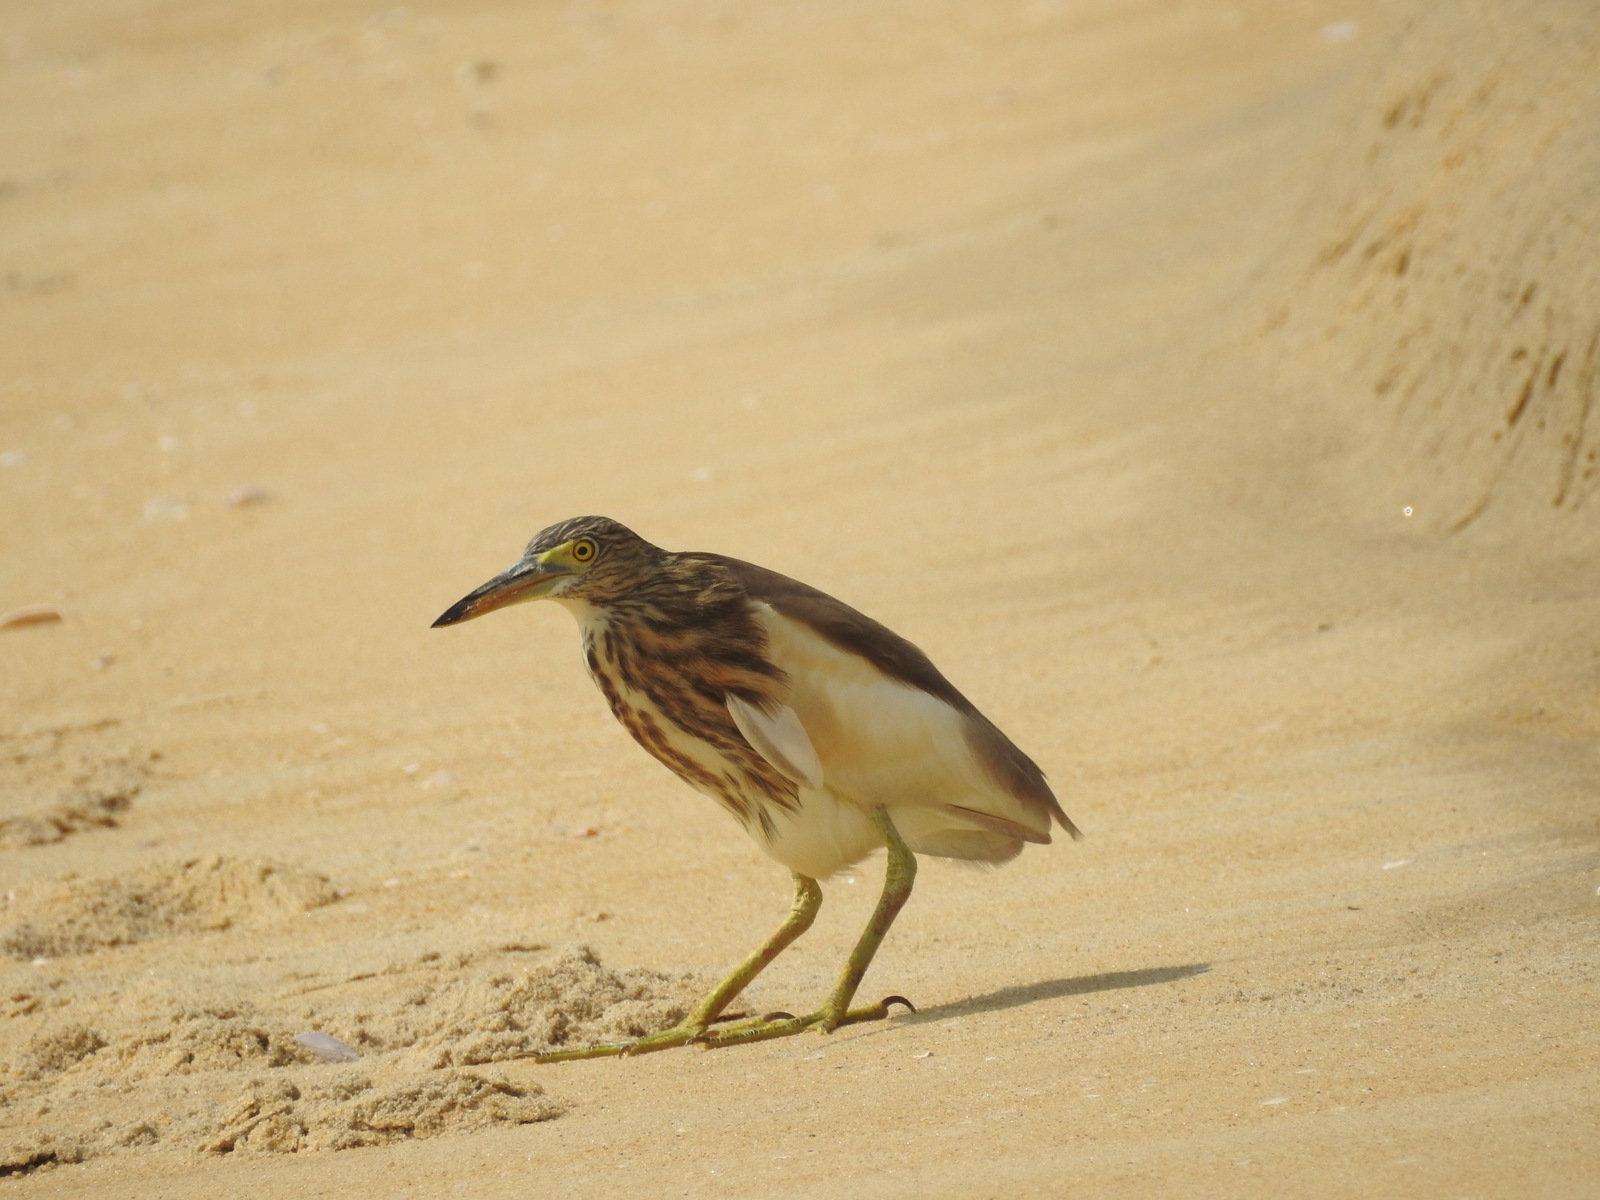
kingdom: Animalia
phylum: Chordata
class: Aves
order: Pelecaniformes
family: Ardeidae
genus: Ardeola
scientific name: Ardeola grayii
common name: Indian pond heron
